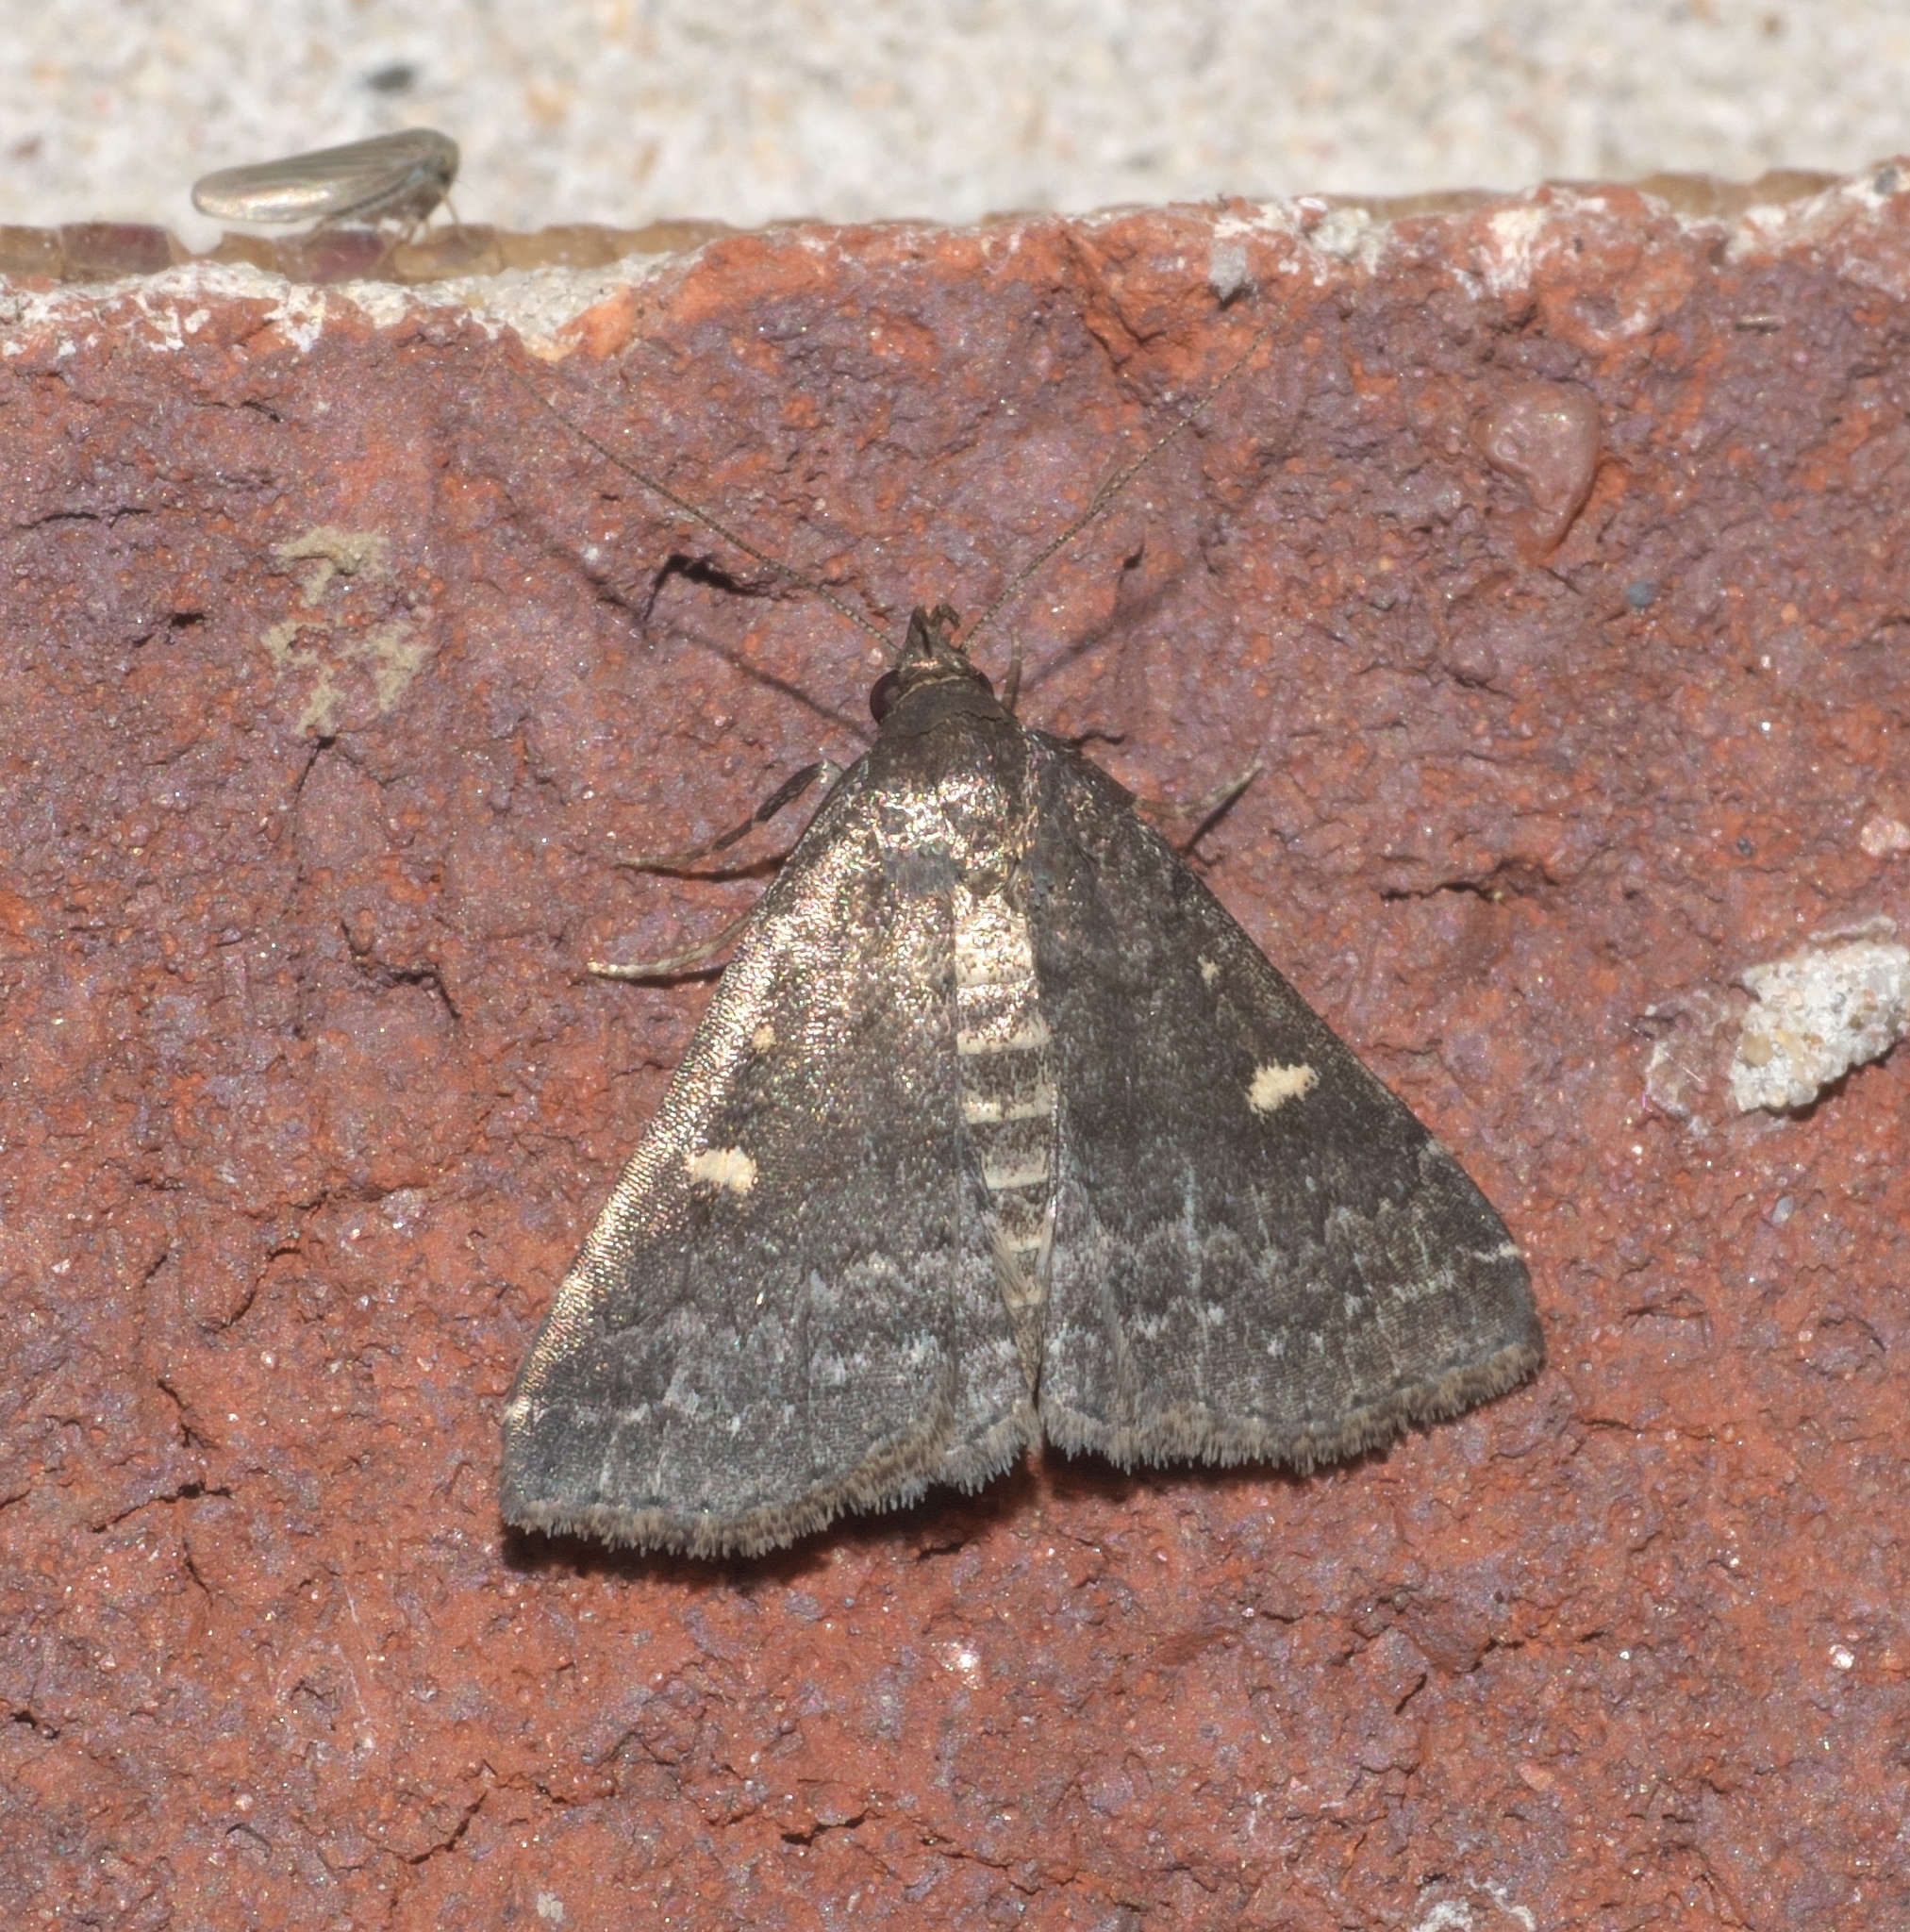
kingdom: Animalia
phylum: Arthropoda
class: Insecta
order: Lepidoptera
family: Erebidae
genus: Tetanolita
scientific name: Tetanolita mynesalis
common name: Smoky tetanolita moth
